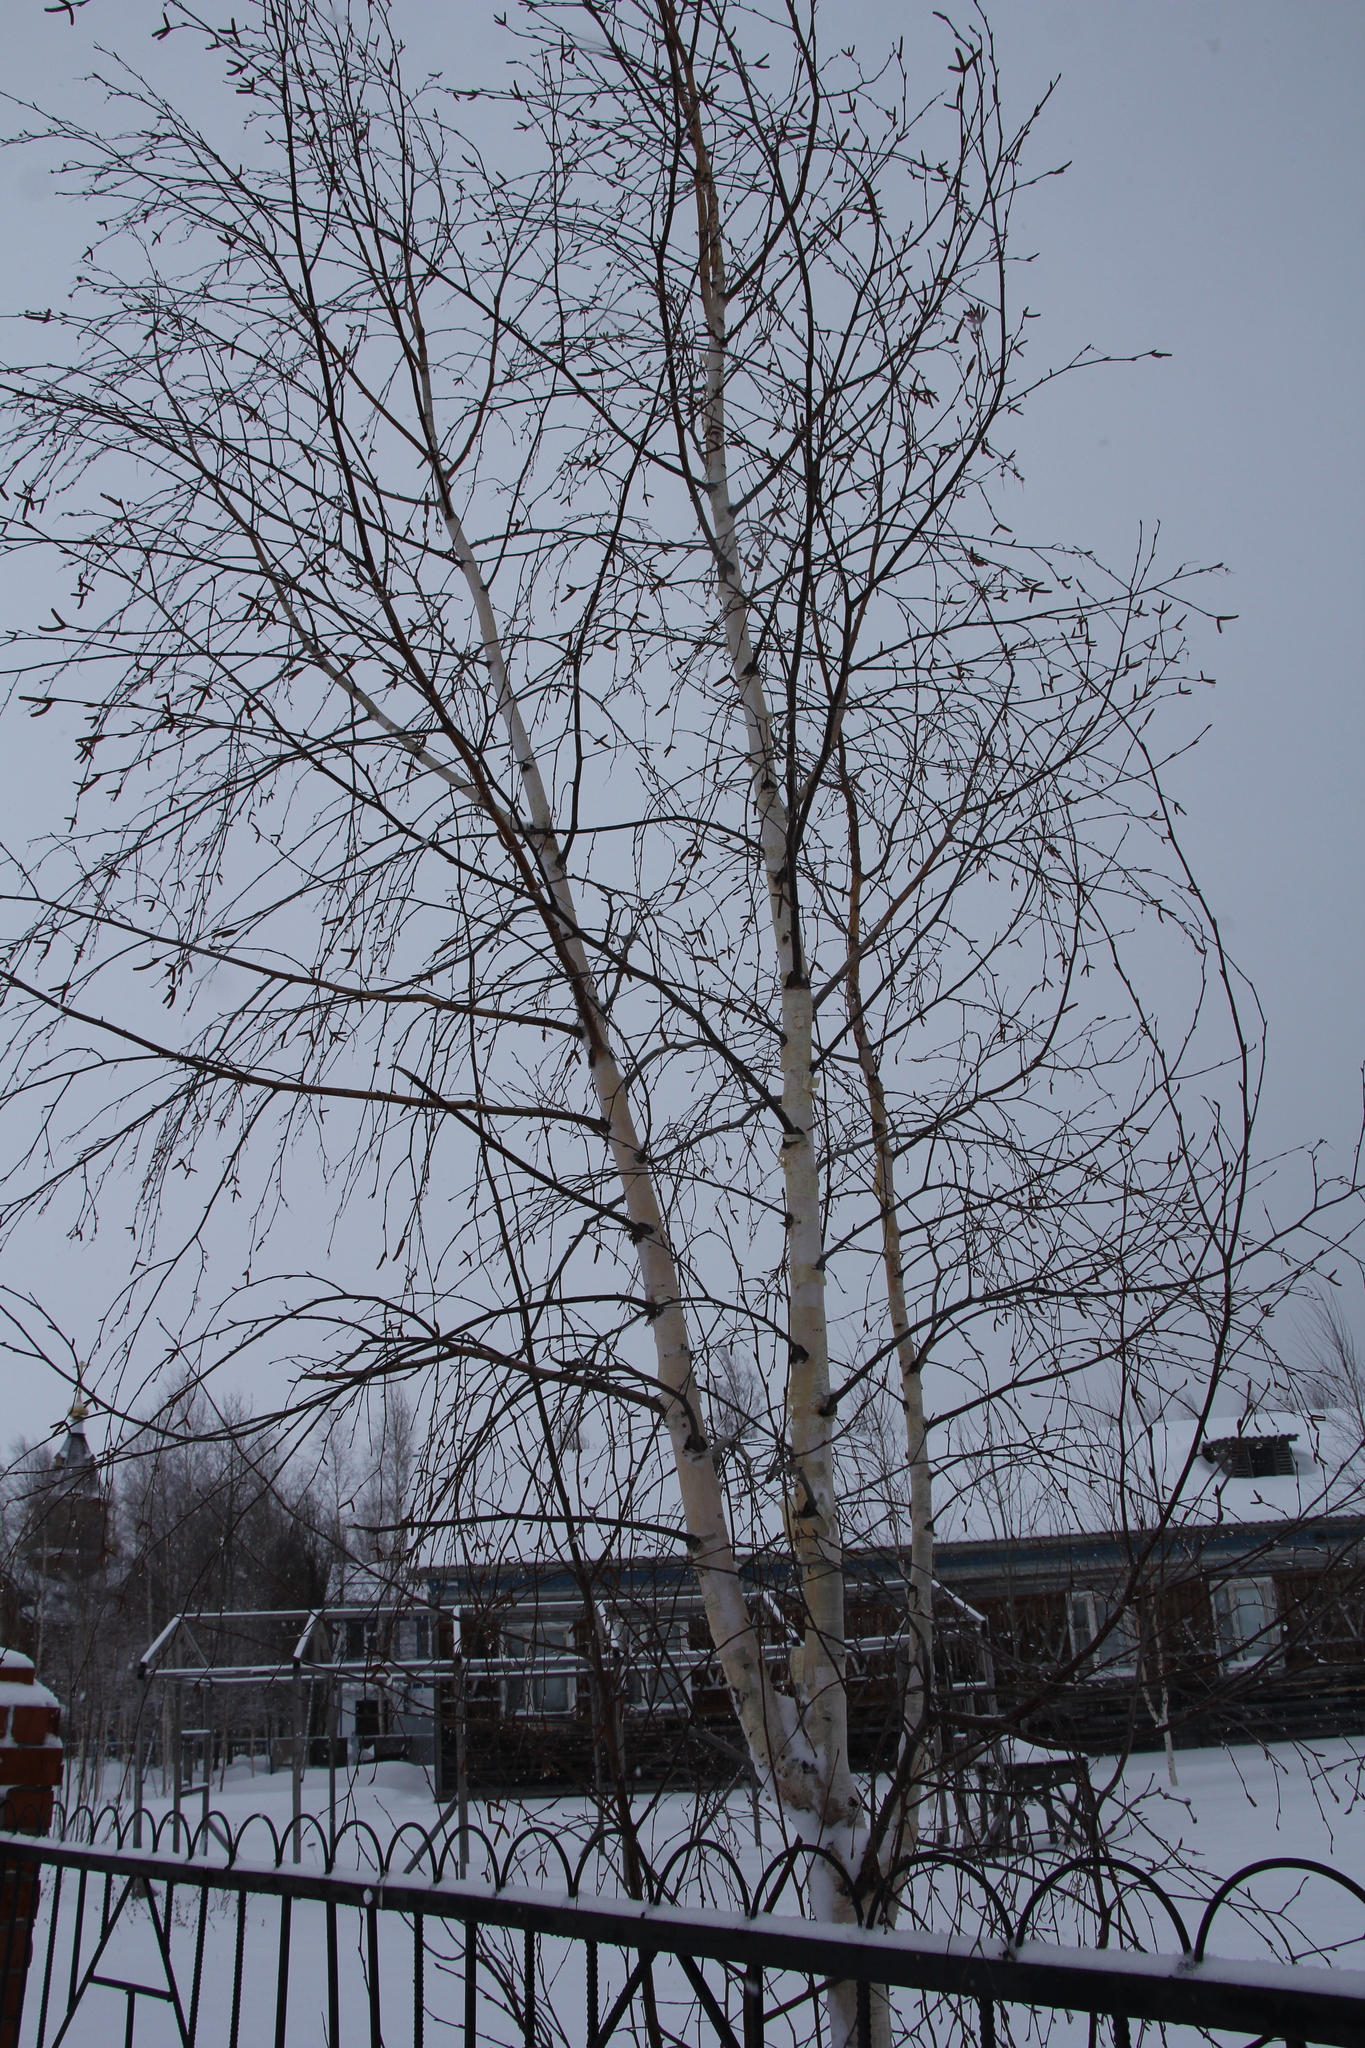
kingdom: Plantae
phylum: Tracheophyta
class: Magnoliopsida
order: Fagales
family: Betulaceae
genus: Betula
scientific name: Betula pendula
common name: Silver birch
